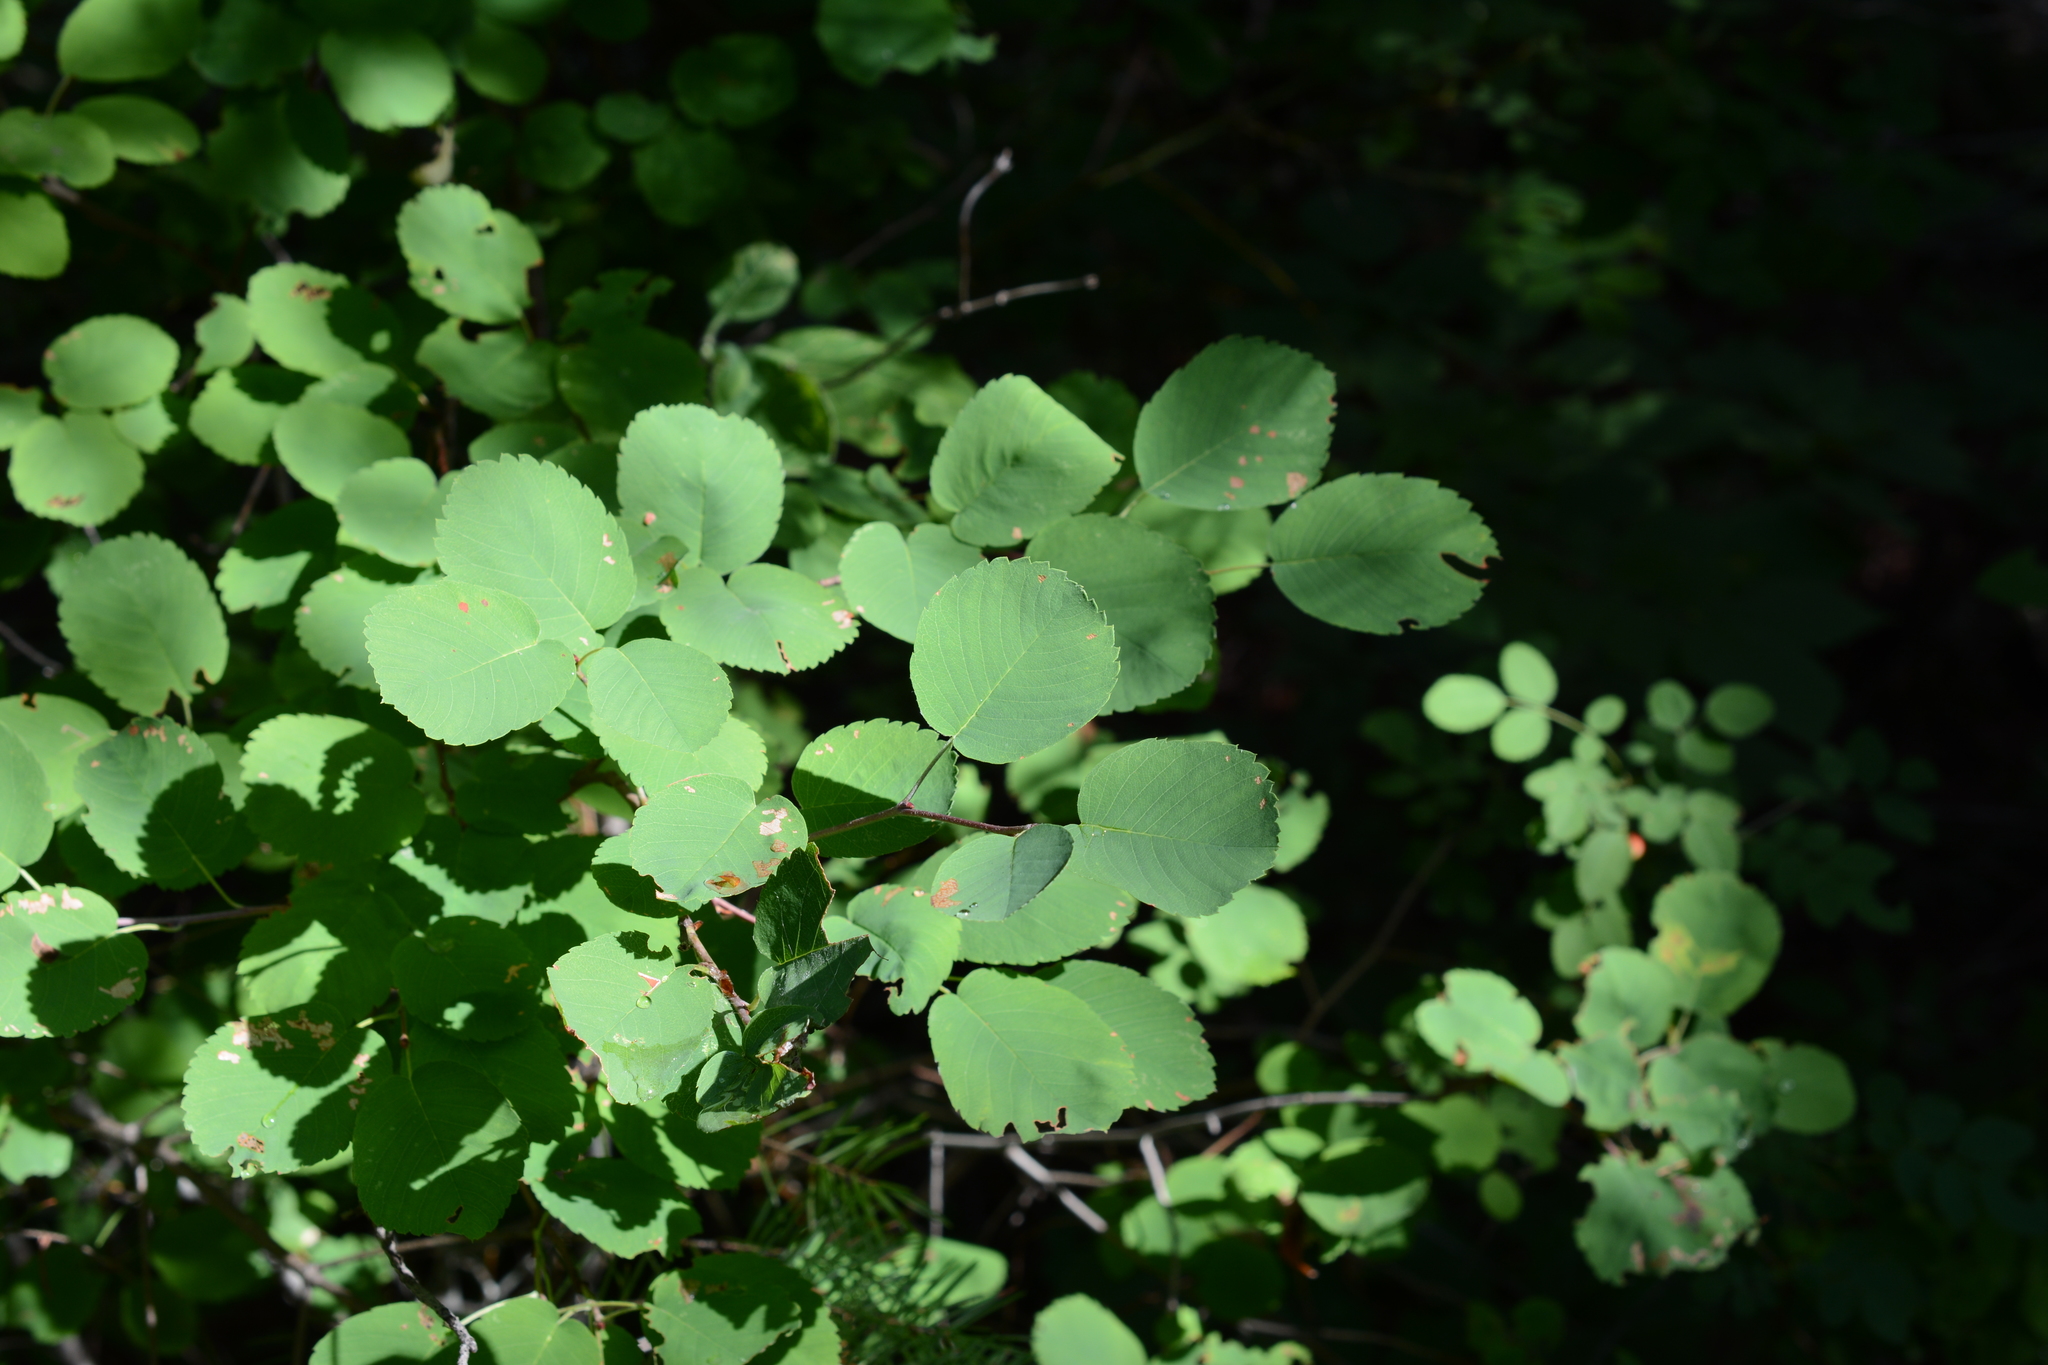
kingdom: Plantae
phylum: Tracheophyta
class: Magnoliopsida
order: Rosales
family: Rosaceae
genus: Amelanchier
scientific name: Amelanchier alnifolia
